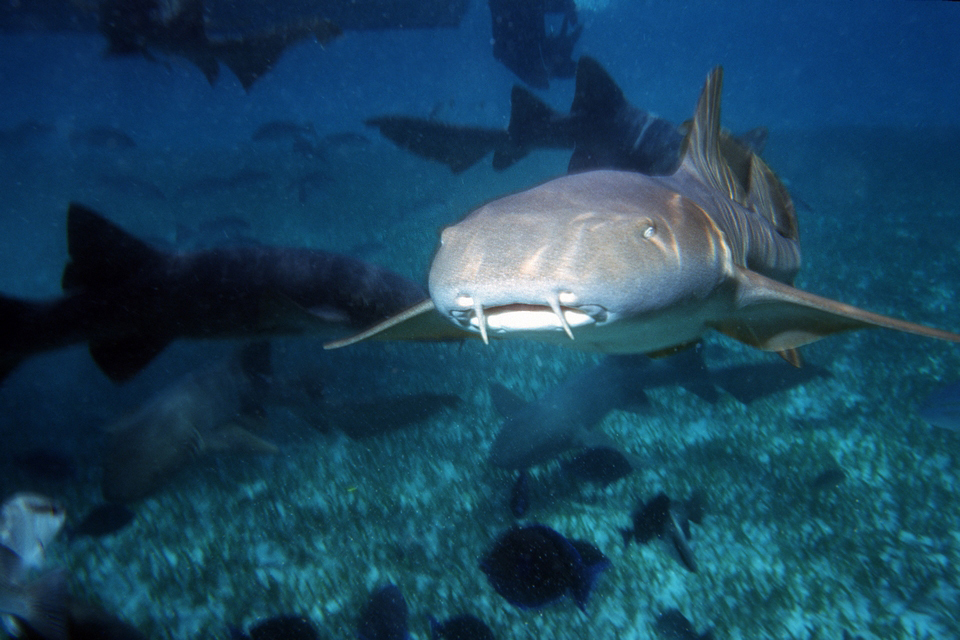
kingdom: Animalia
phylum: Chordata
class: Elasmobranchii
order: Orectolobiformes
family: Ginglymostomatidae
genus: Ginglymostoma
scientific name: Ginglymostoma cirratum
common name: Nurse shark
